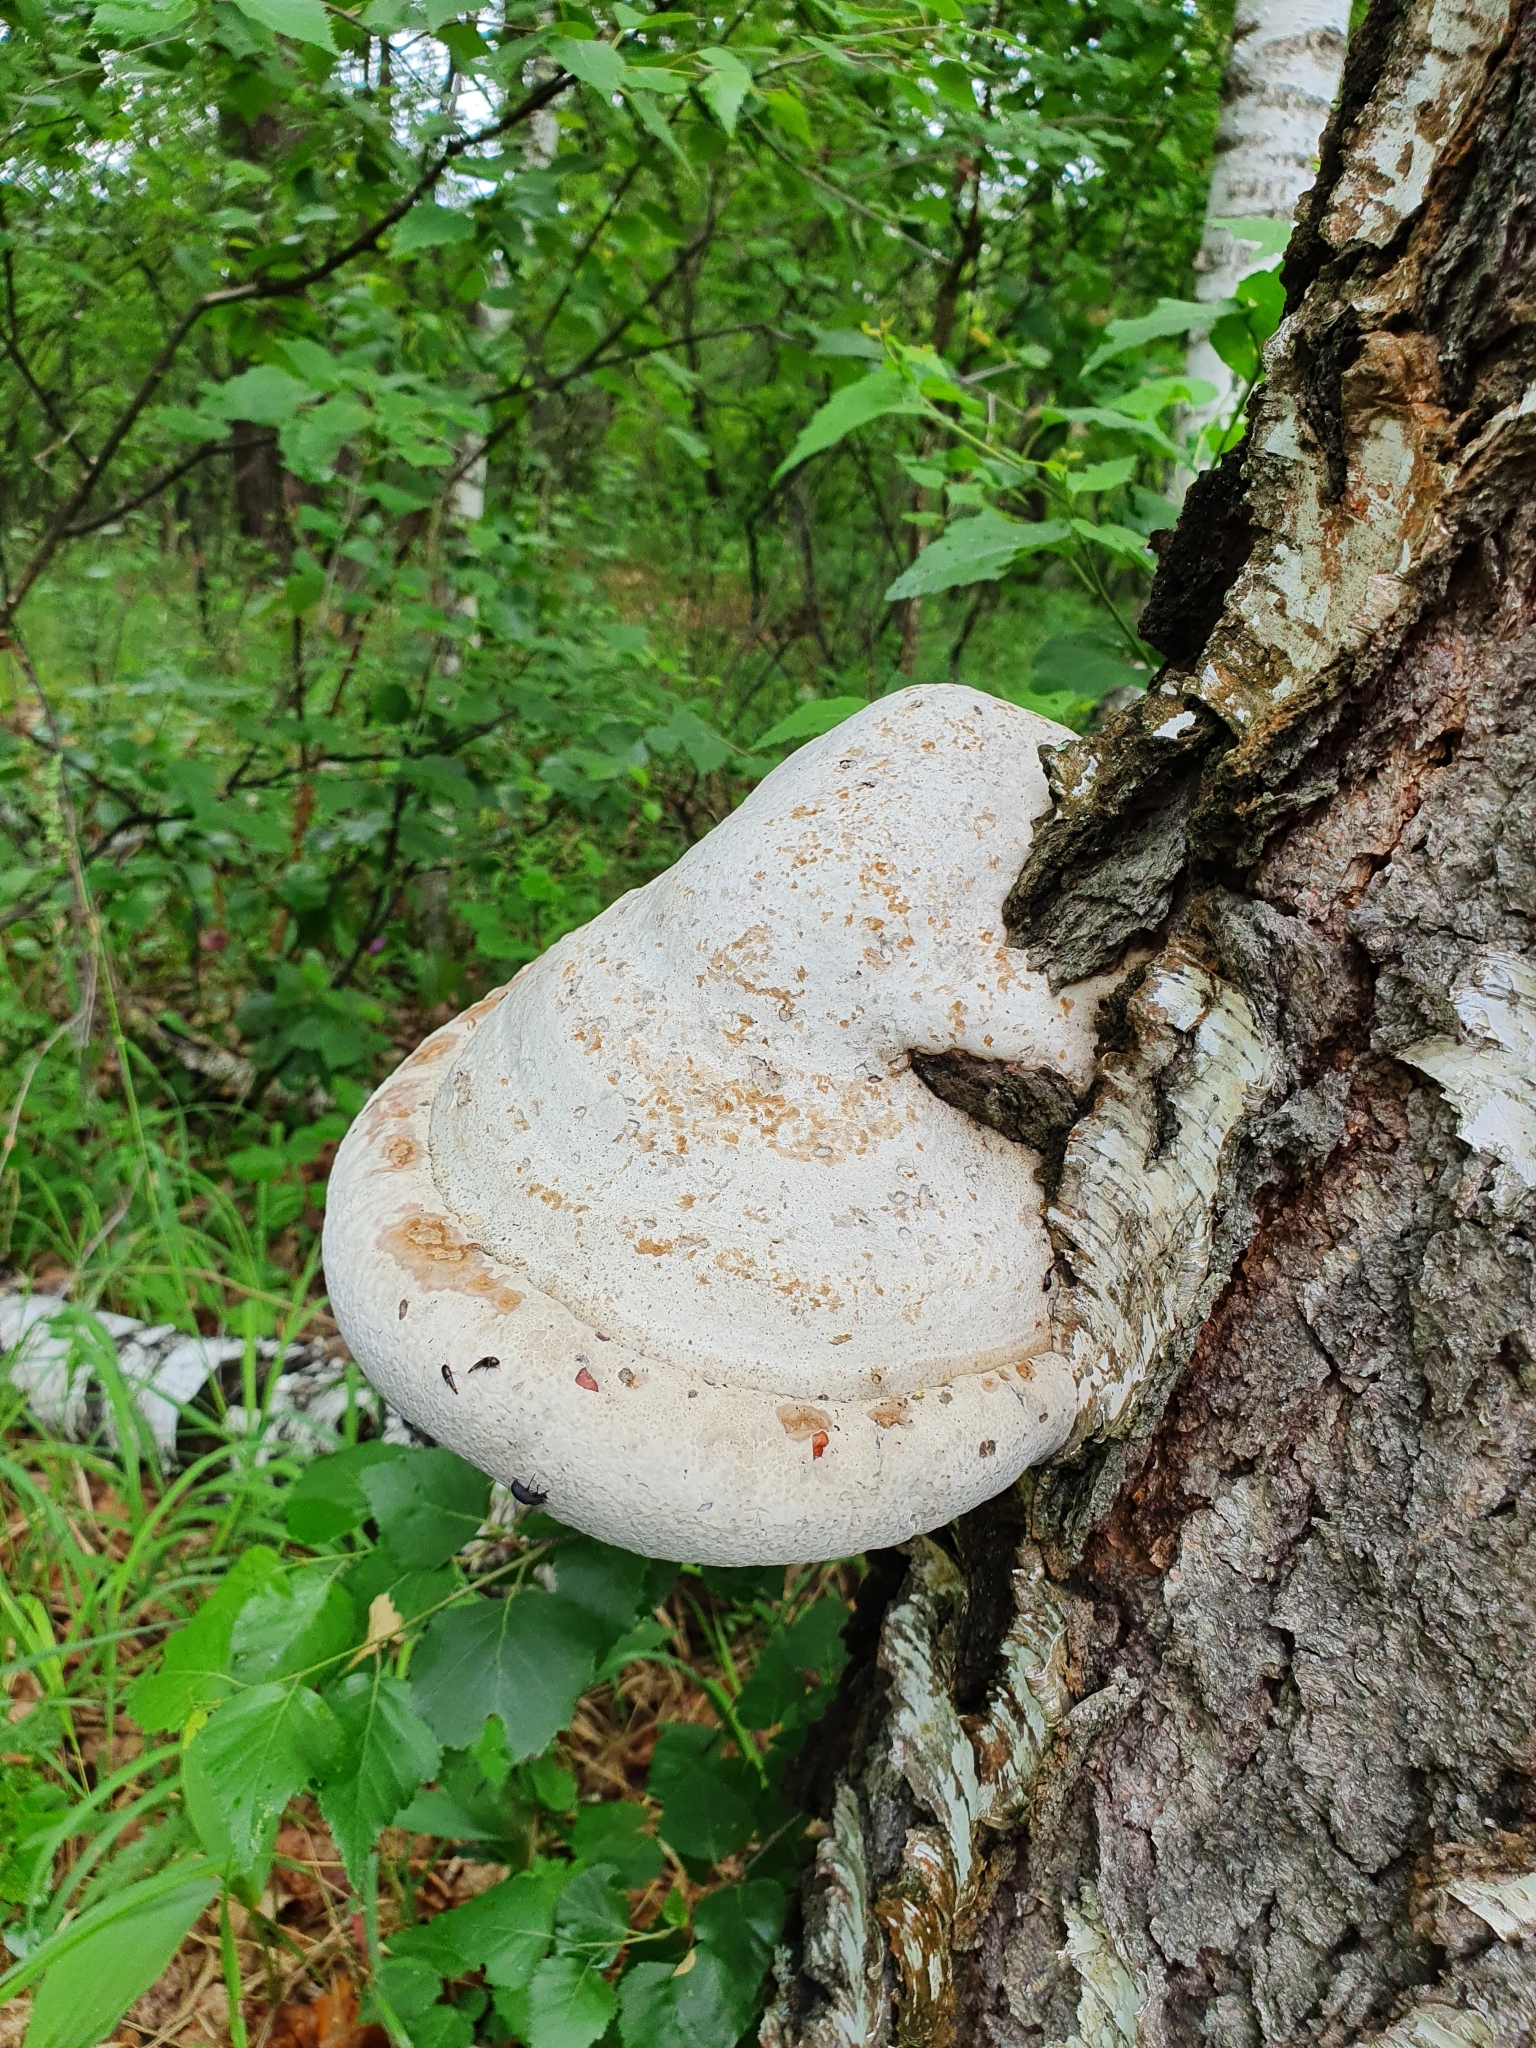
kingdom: Fungi
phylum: Basidiomycota
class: Agaricomycetes
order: Polyporales
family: Polyporaceae
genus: Fomes
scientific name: Fomes fomentarius
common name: Hoof fungus
